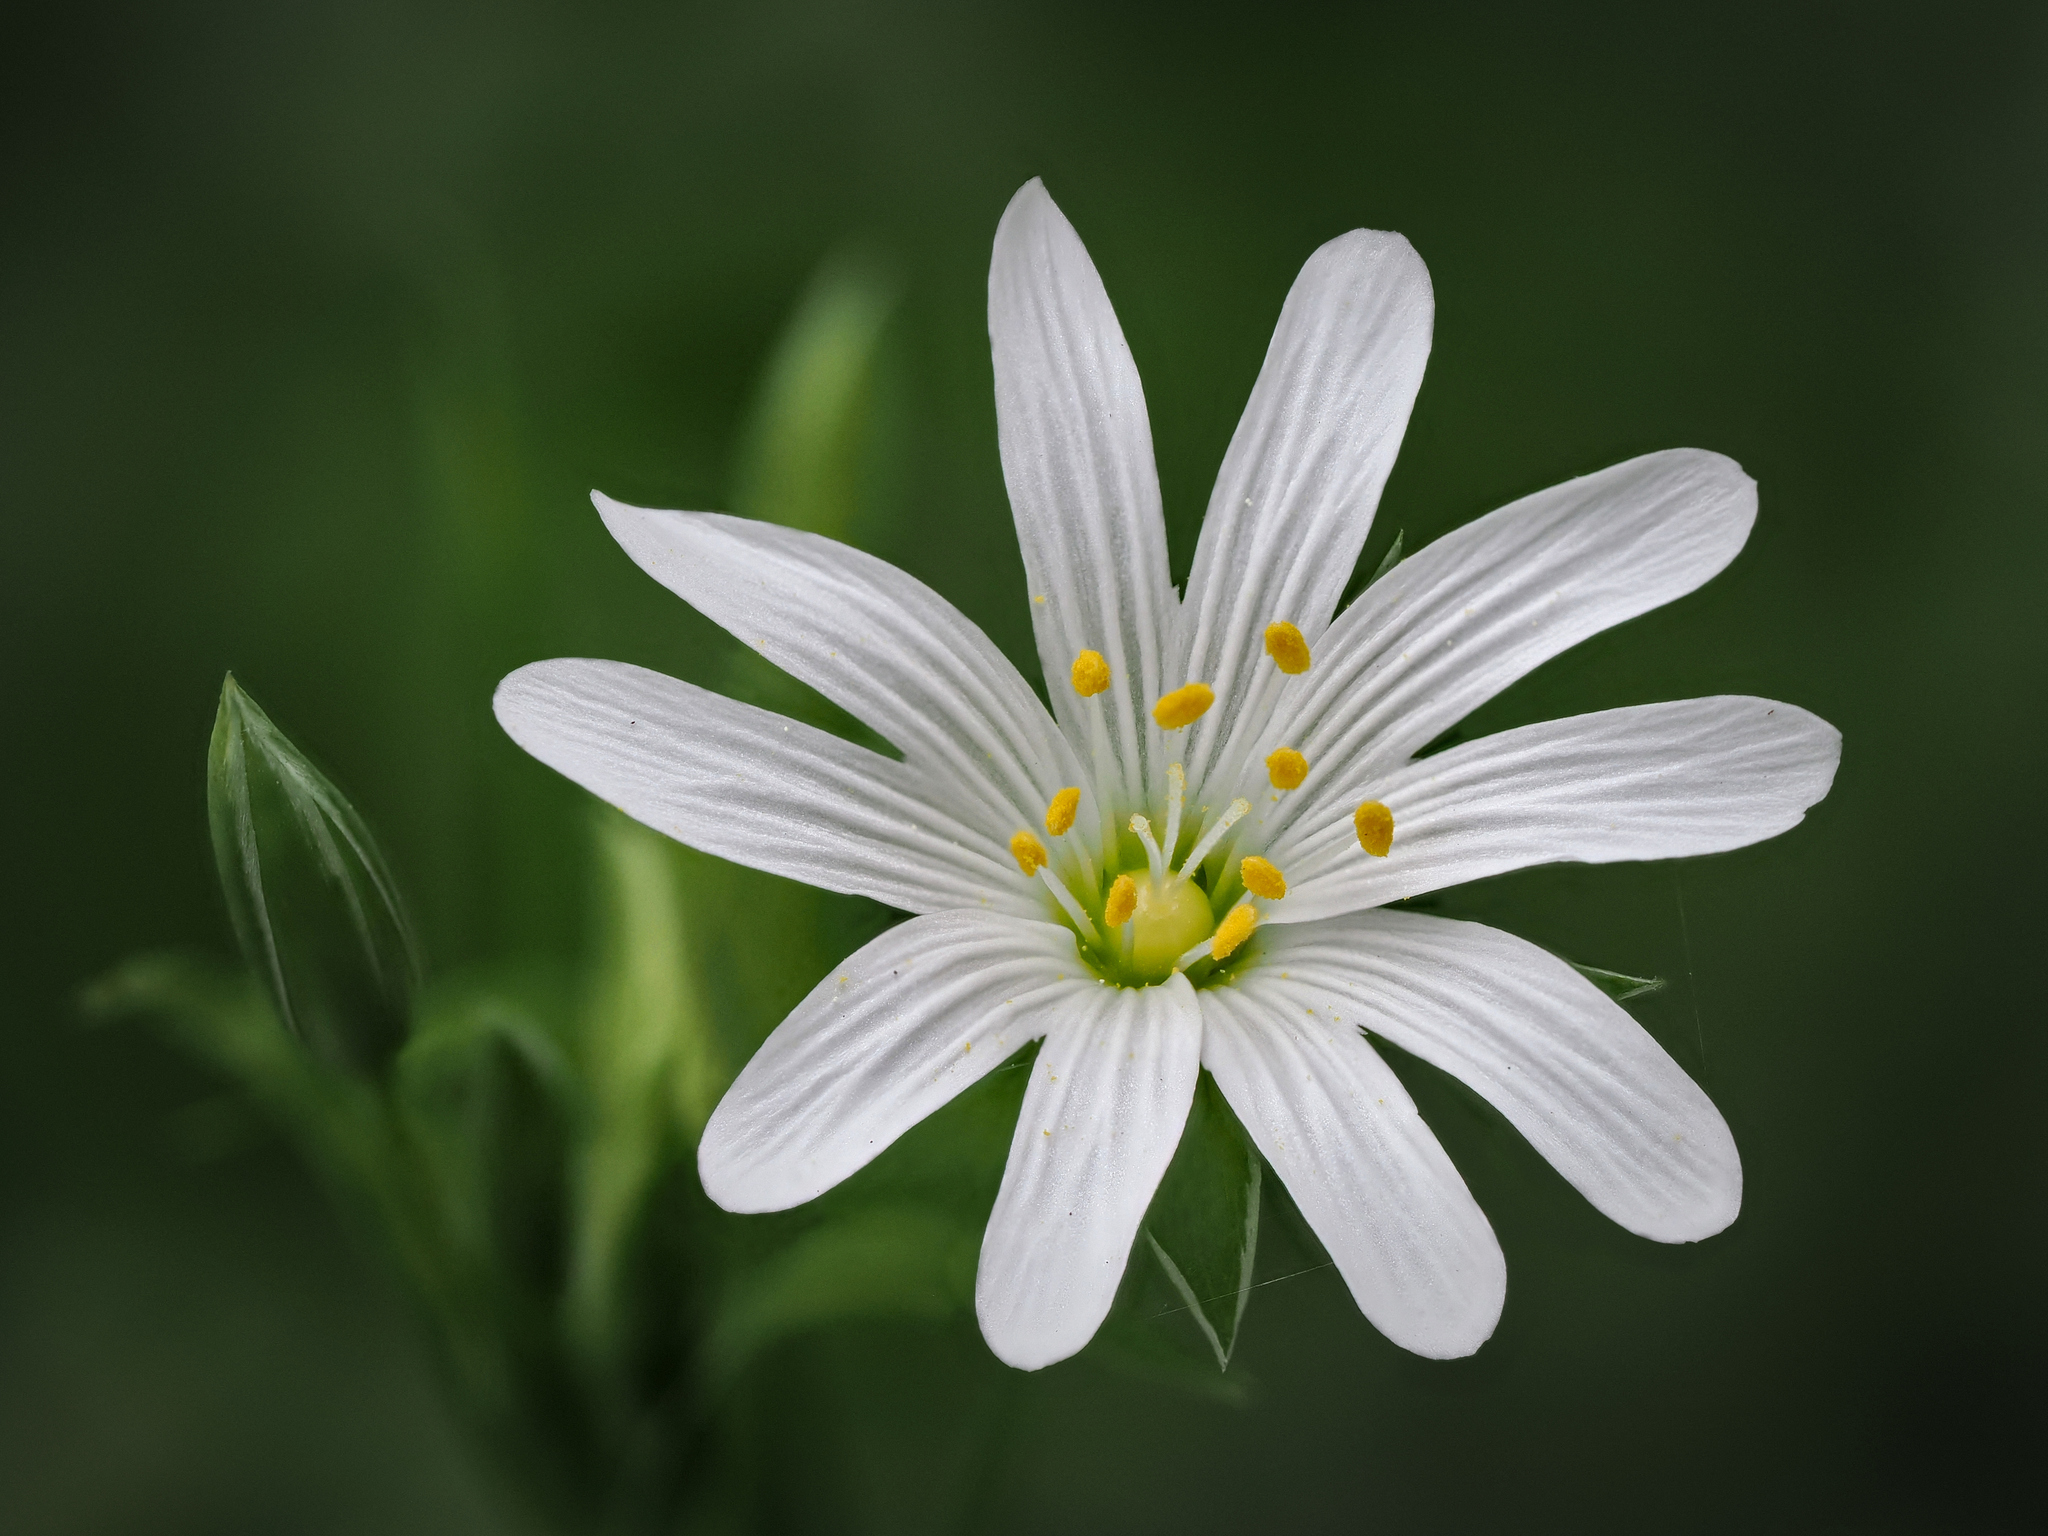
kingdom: Plantae
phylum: Tracheophyta
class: Magnoliopsida
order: Caryophyllales
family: Caryophyllaceae
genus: Rabelera
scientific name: Rabelera holostea
